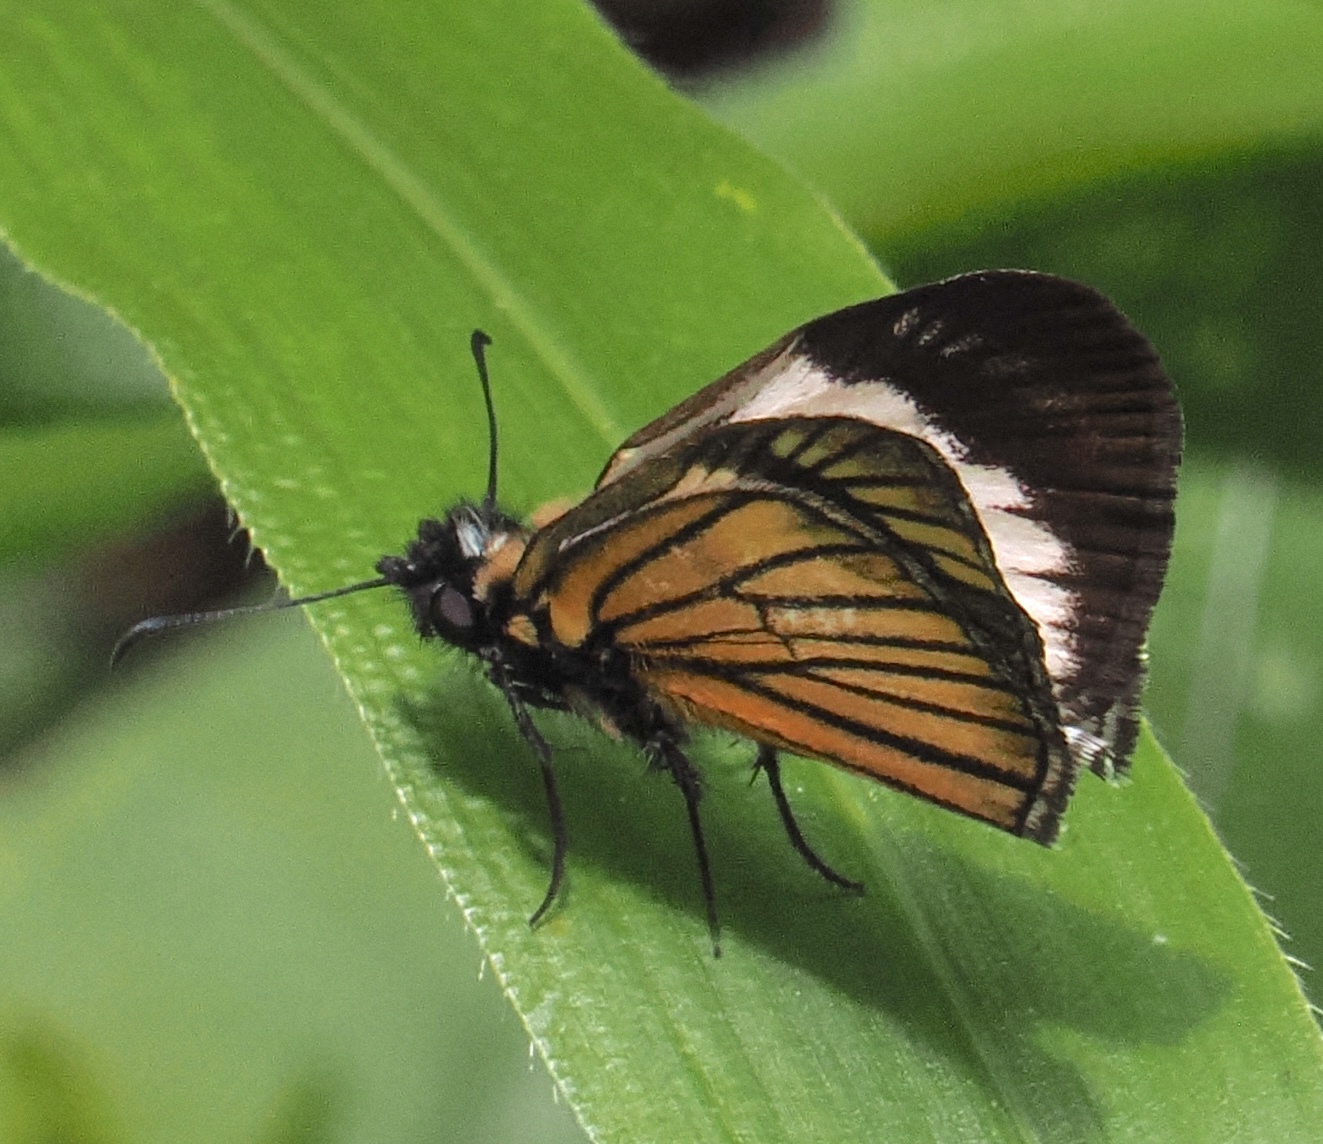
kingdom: Animalia
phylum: Arthropoda
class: Insecta
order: Lepidoptera
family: Hesperiidae
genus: Heliopetes
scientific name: Heliopetes purgia
